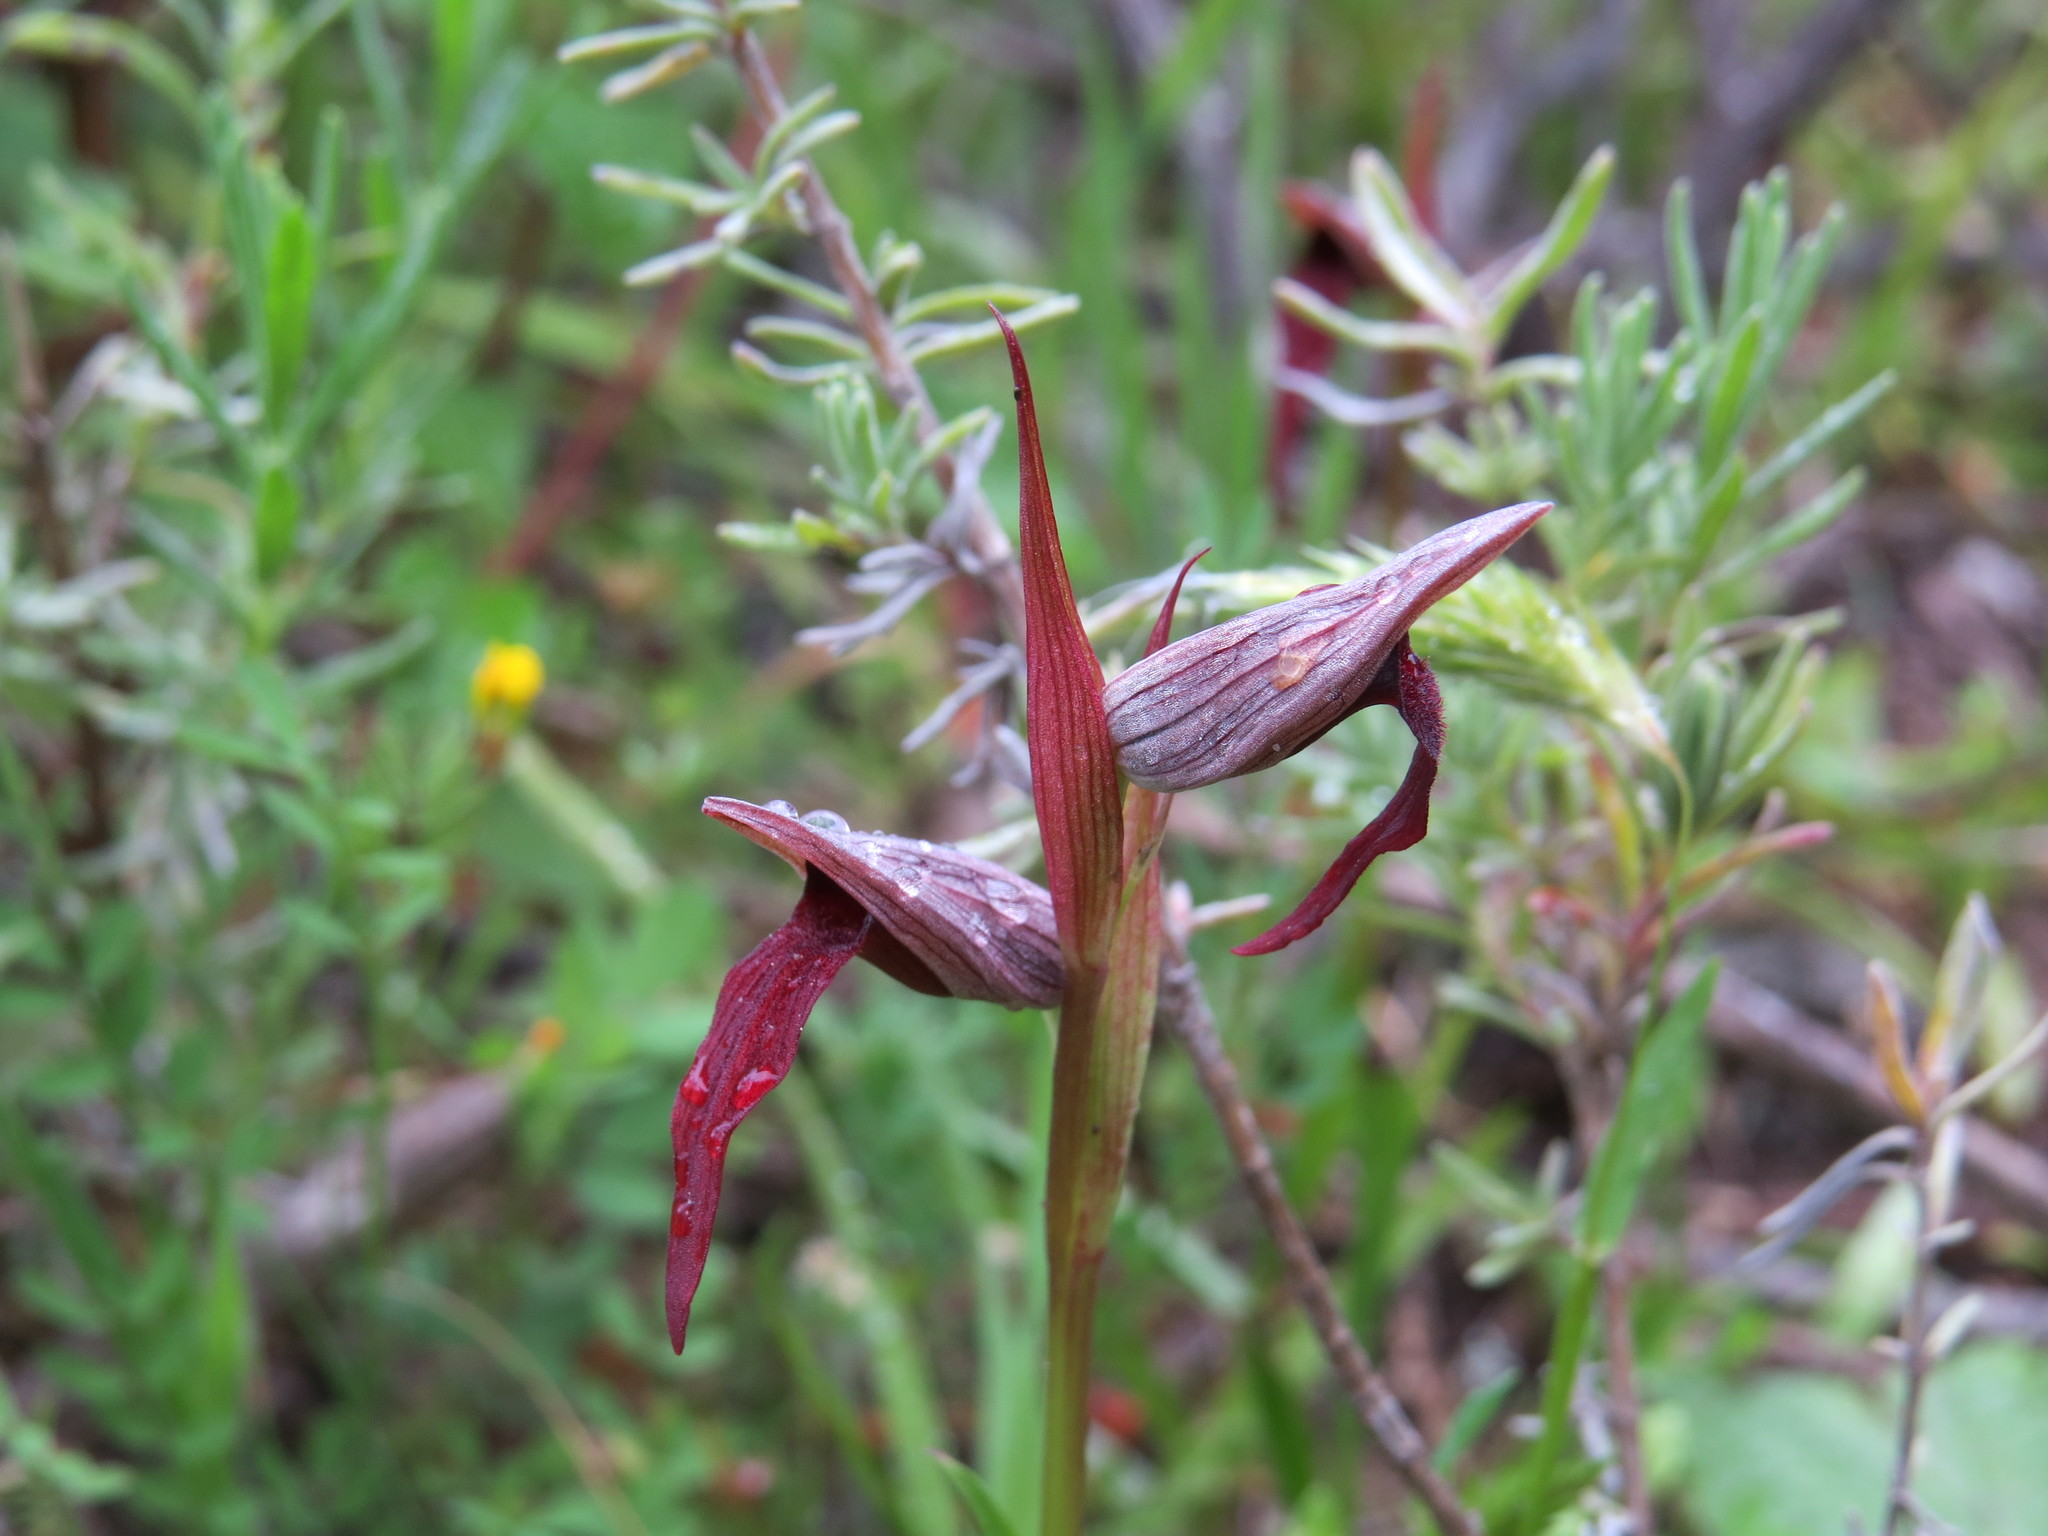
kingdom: Plantae
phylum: Tracheophyta
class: Liliopsida
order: Asparagales
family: Orchidaceae
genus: Serapias
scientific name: Serapias strictiflora
